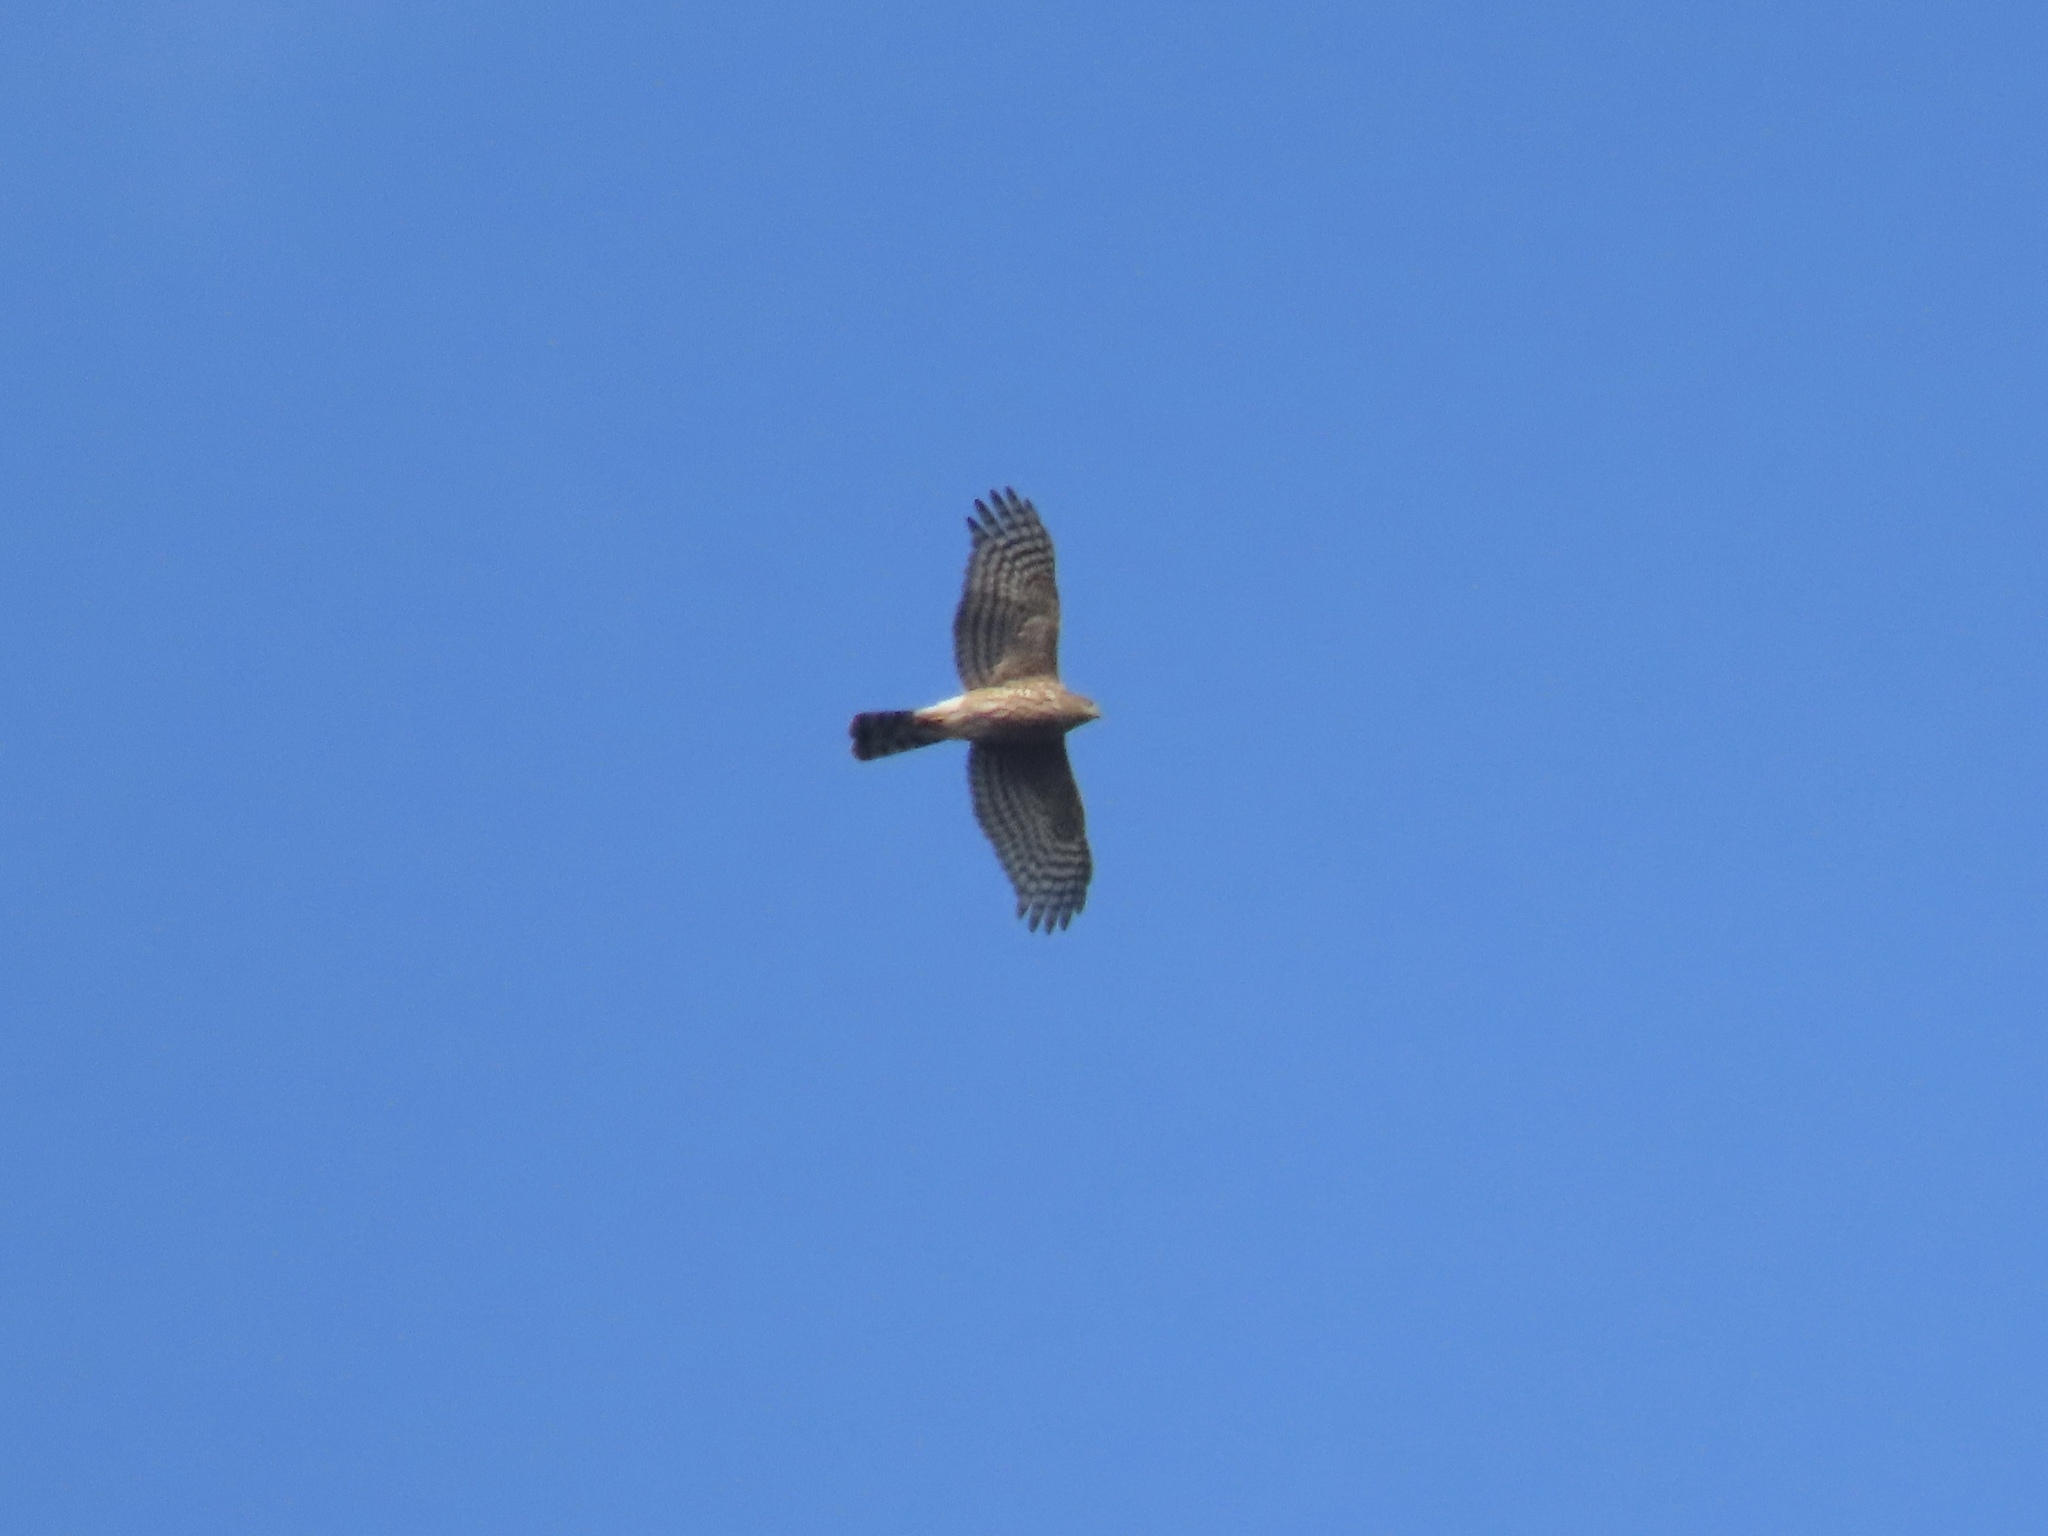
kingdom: Animalia
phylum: Chordata
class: Aves
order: Accipitriformes
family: Accipitridae
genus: Accipiter
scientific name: Accipiter striatus
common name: Sharp-shinned hawk
